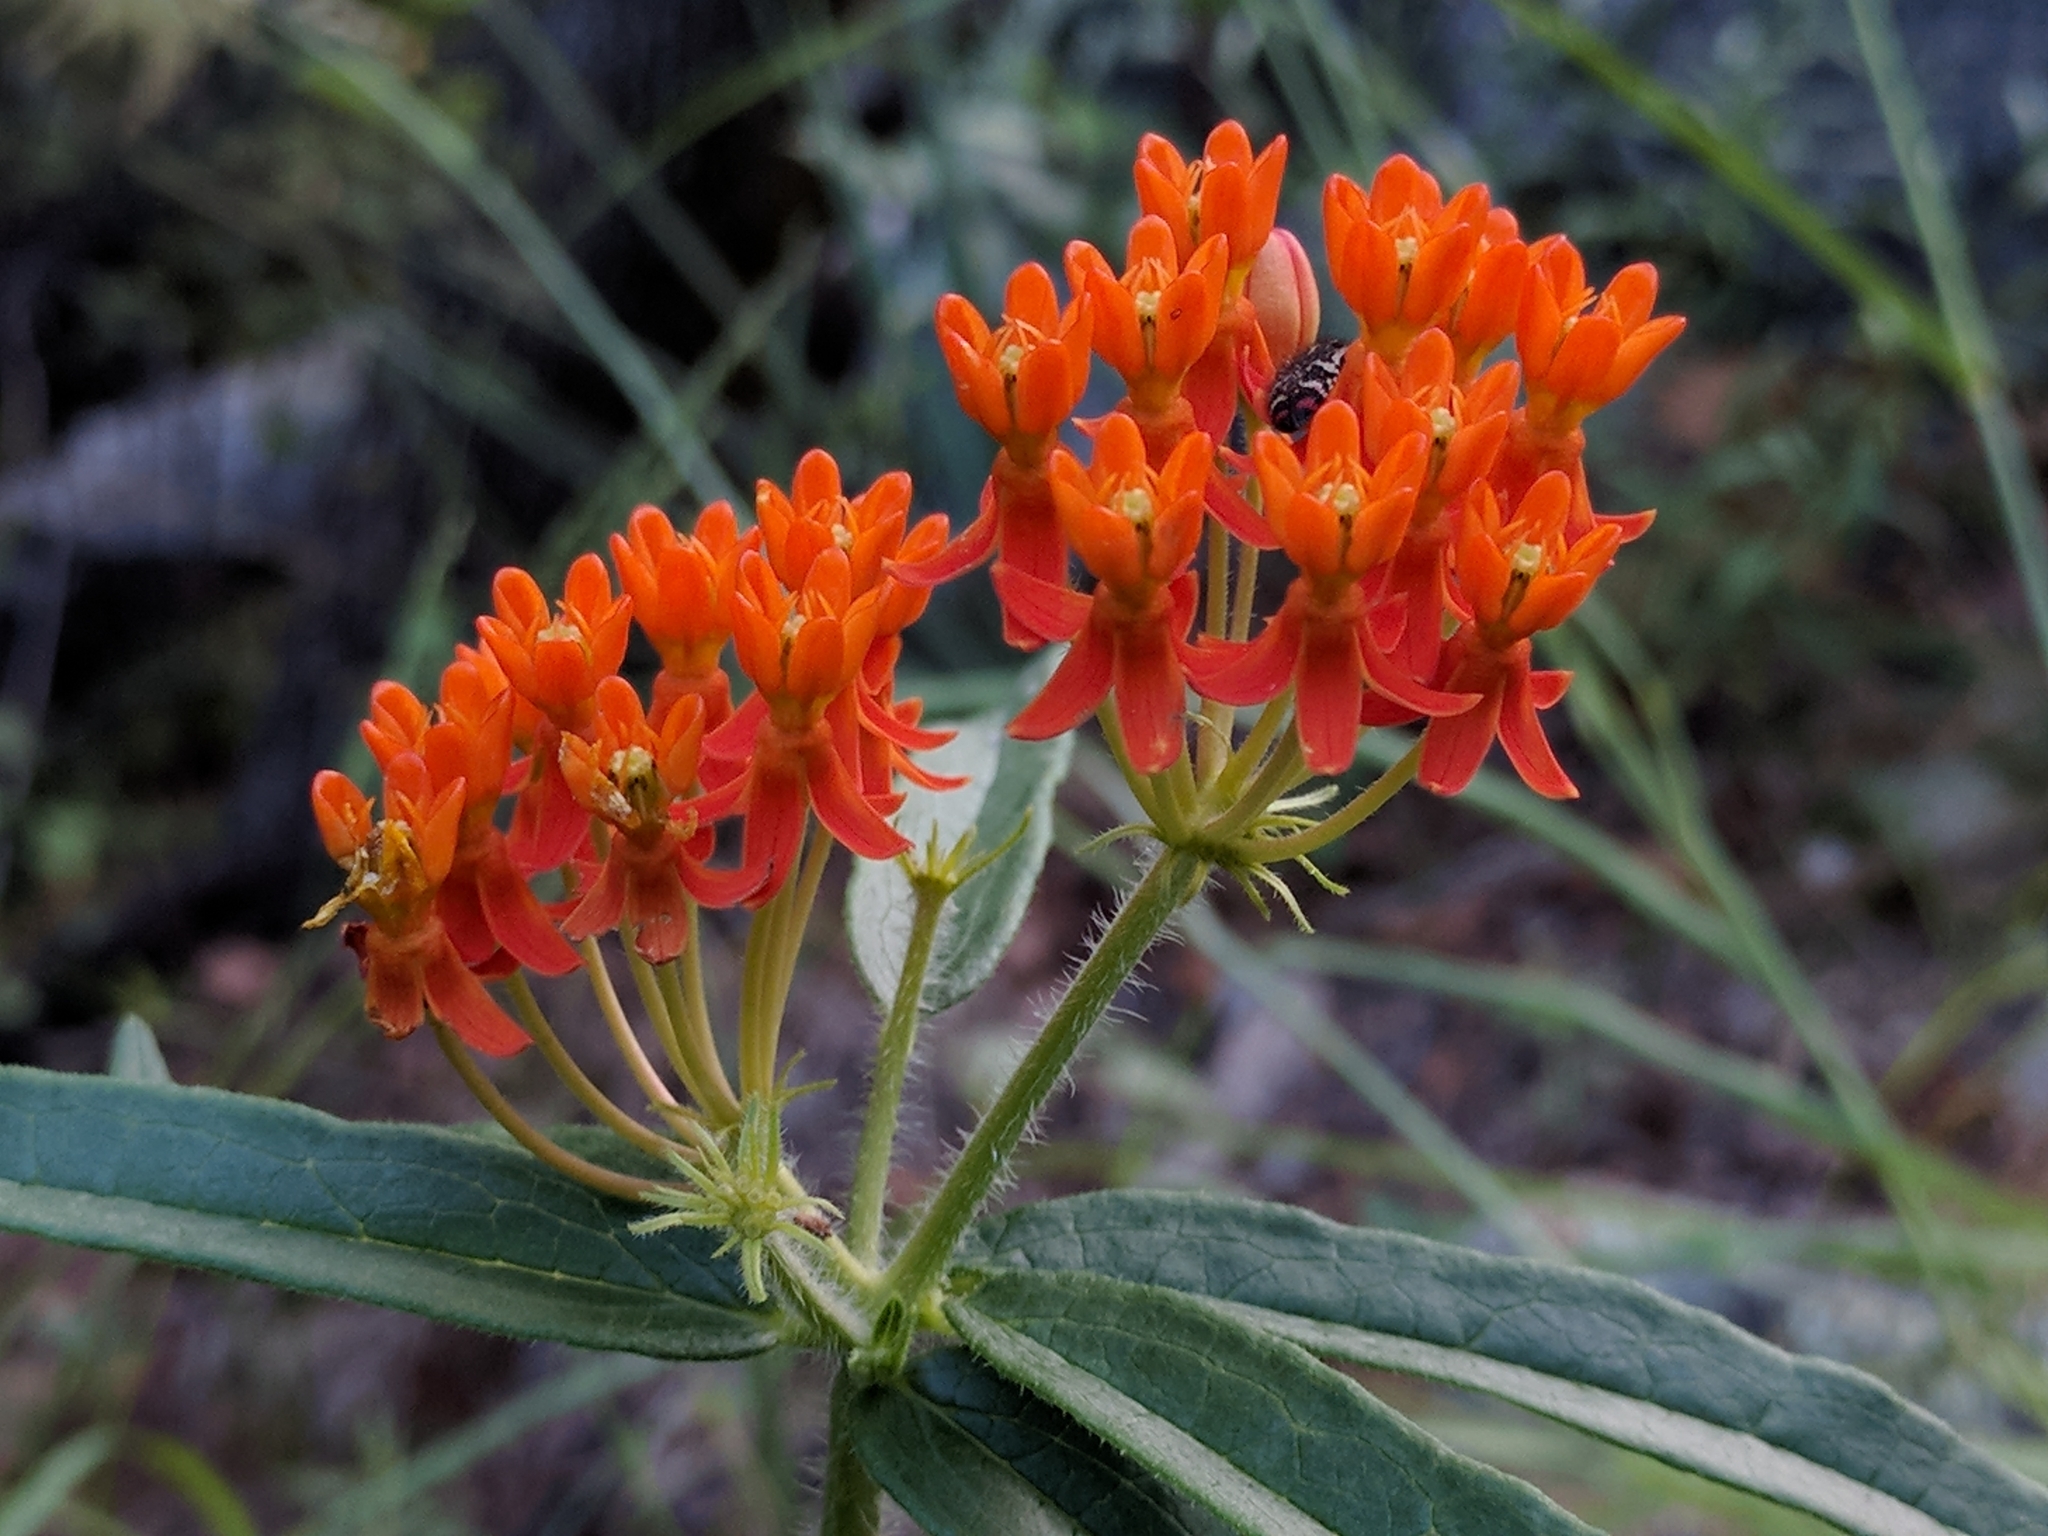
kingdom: Plantae
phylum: Tracheophyta
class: Magnoliopsida
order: Gentianales
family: Apocynaceae
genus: Asclepias
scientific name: Asclepias tuberosa
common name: Butterfly milkweed
